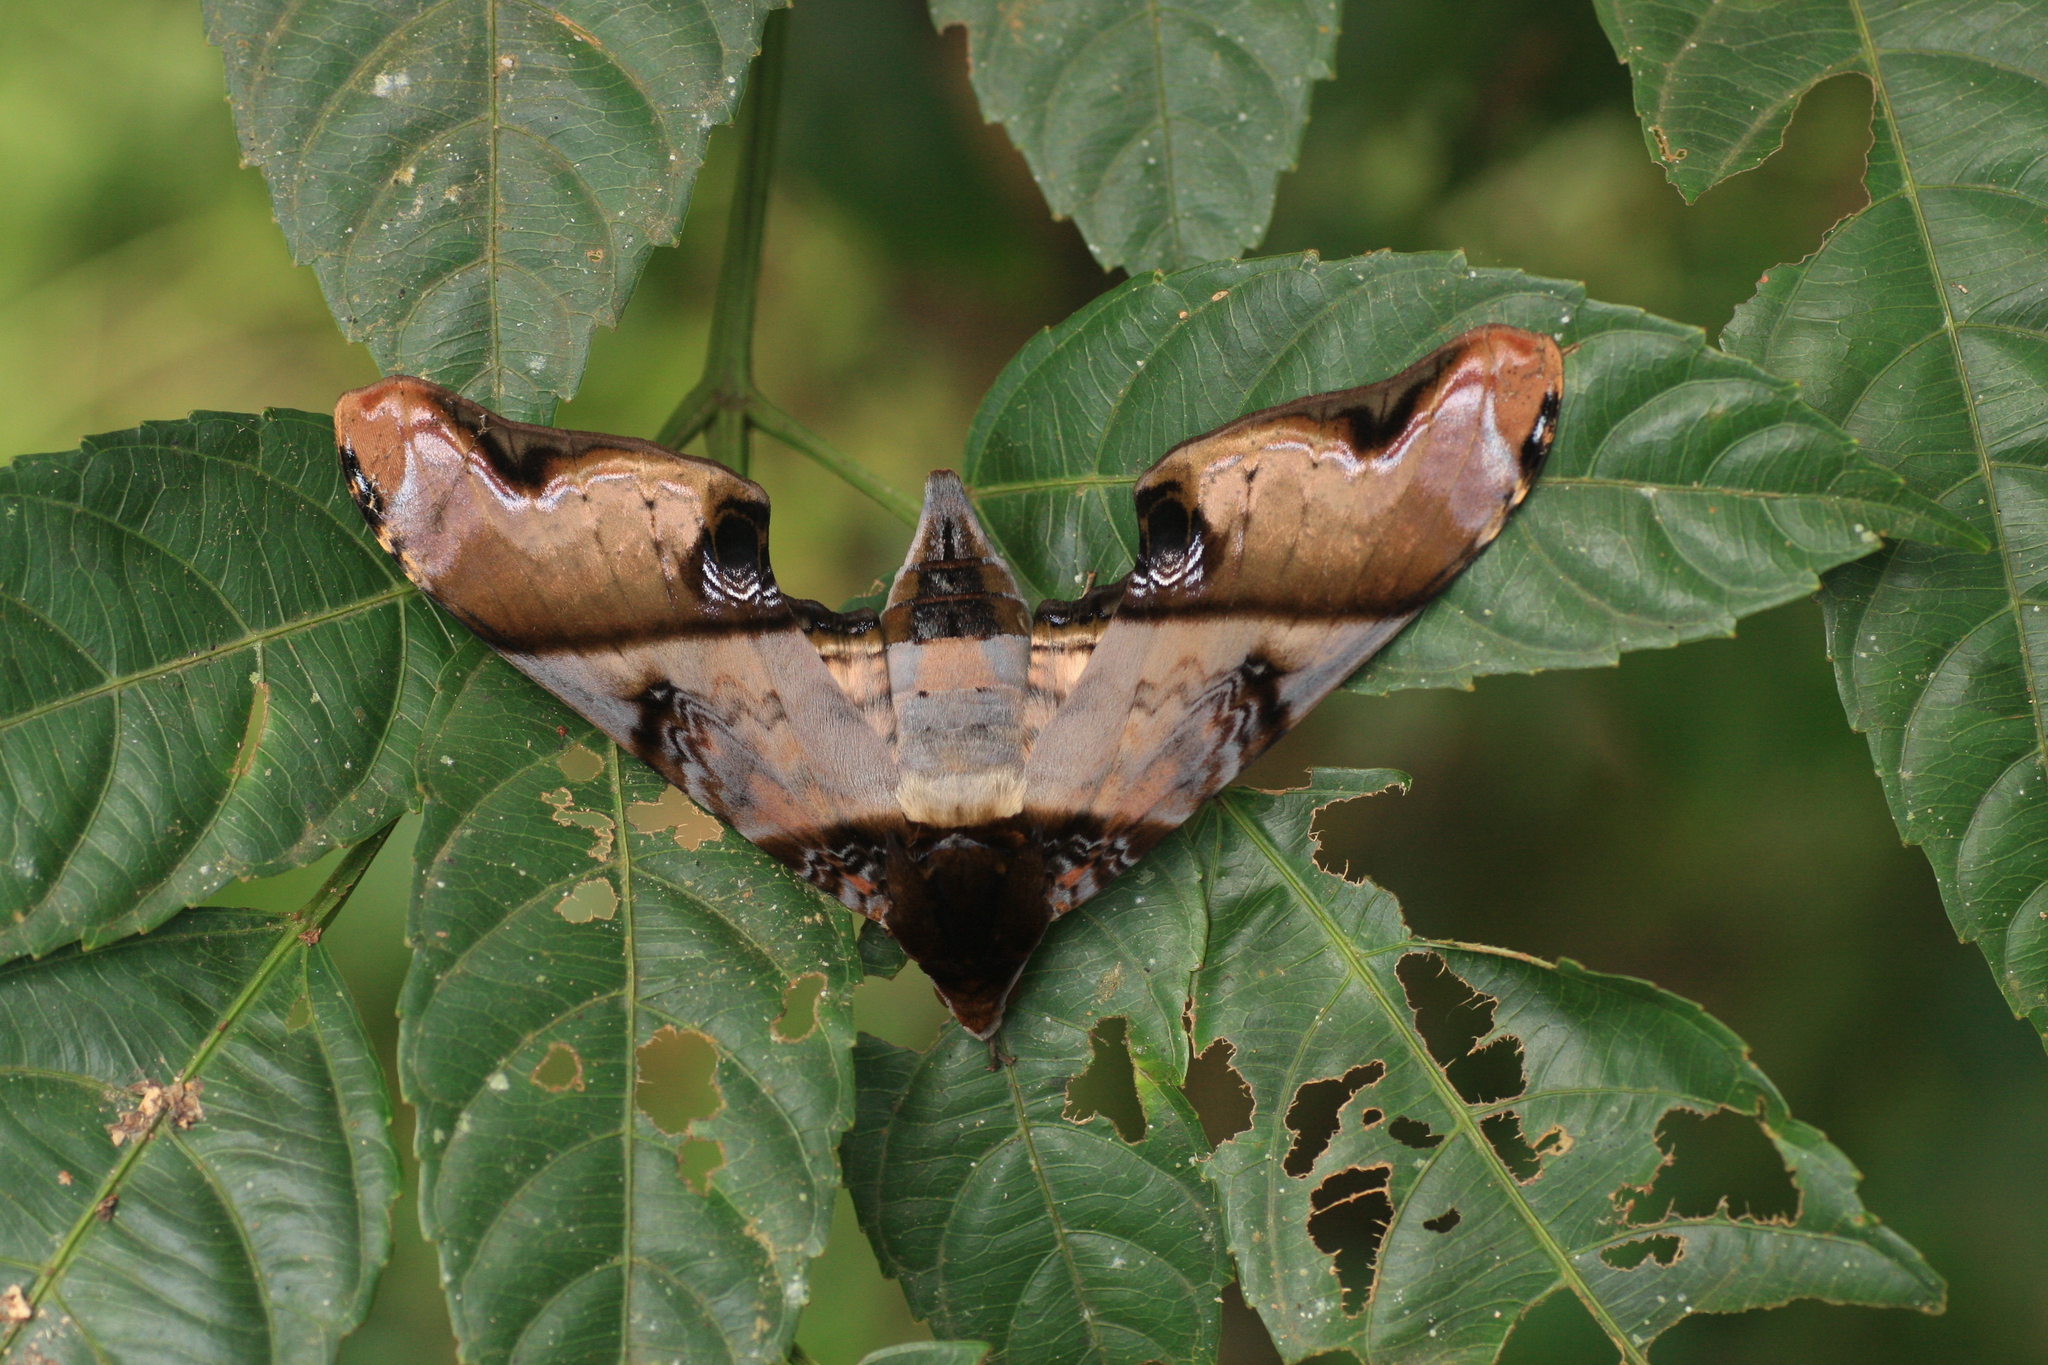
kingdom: Animalia
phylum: Arthropoda
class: Insecta
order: Lepidoptera
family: Sphingidae
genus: Amplypterus
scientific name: Amplypterus panopus
